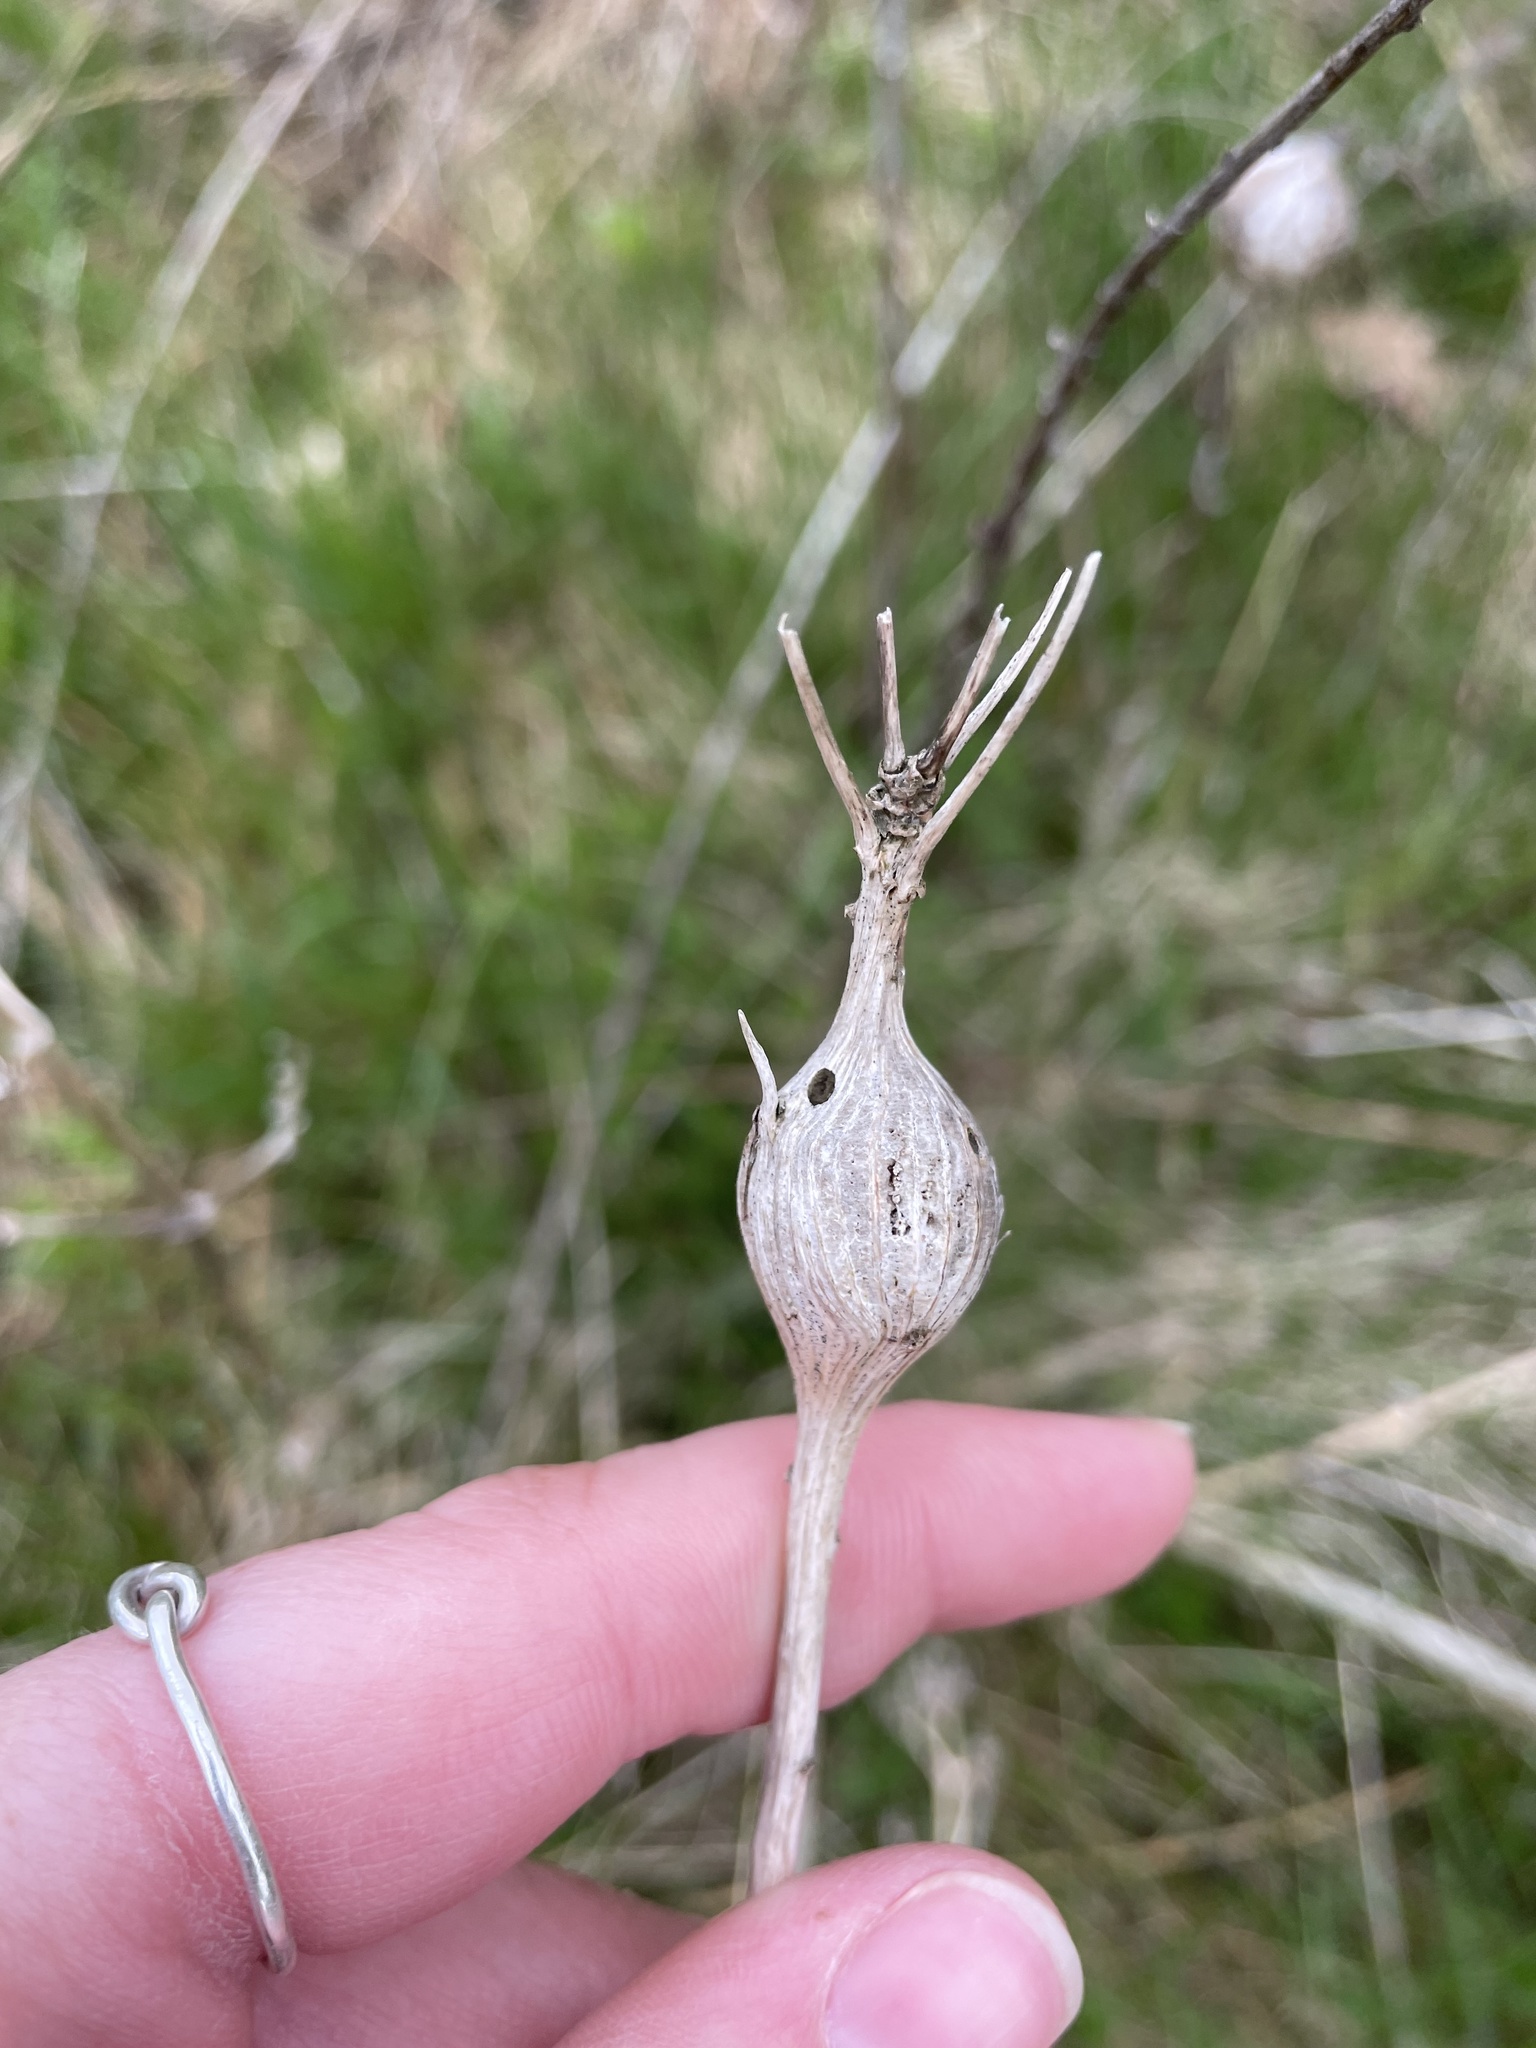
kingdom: Animalia
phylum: Arthropoda
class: Insecta
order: Diptera
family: Tephritidae
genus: Eurosta
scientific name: Eurosta solidaginis
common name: Goldenrod gall fly
